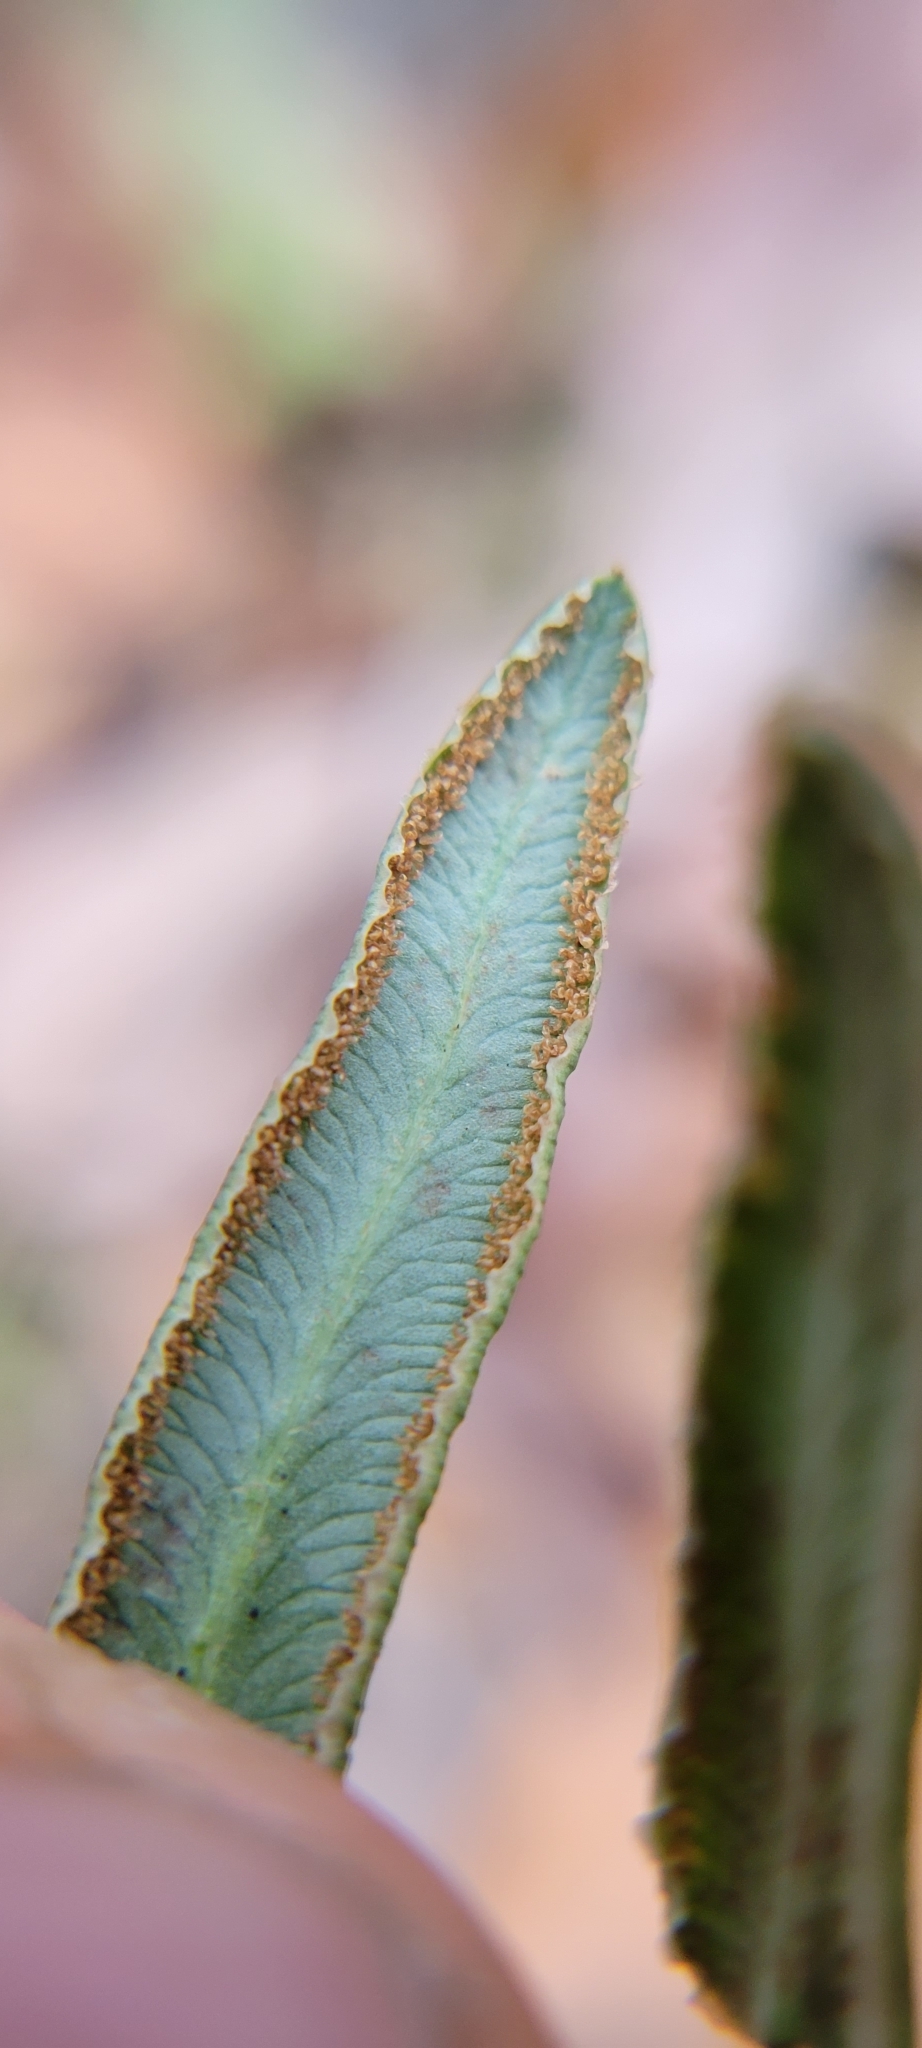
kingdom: Plantae
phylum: Tracheophyta
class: Polypodiopsida
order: Polypodiales
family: Pteridaceae
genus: Pellaea
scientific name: Pellaea atropurpurea
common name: Hairy cliffbrake
